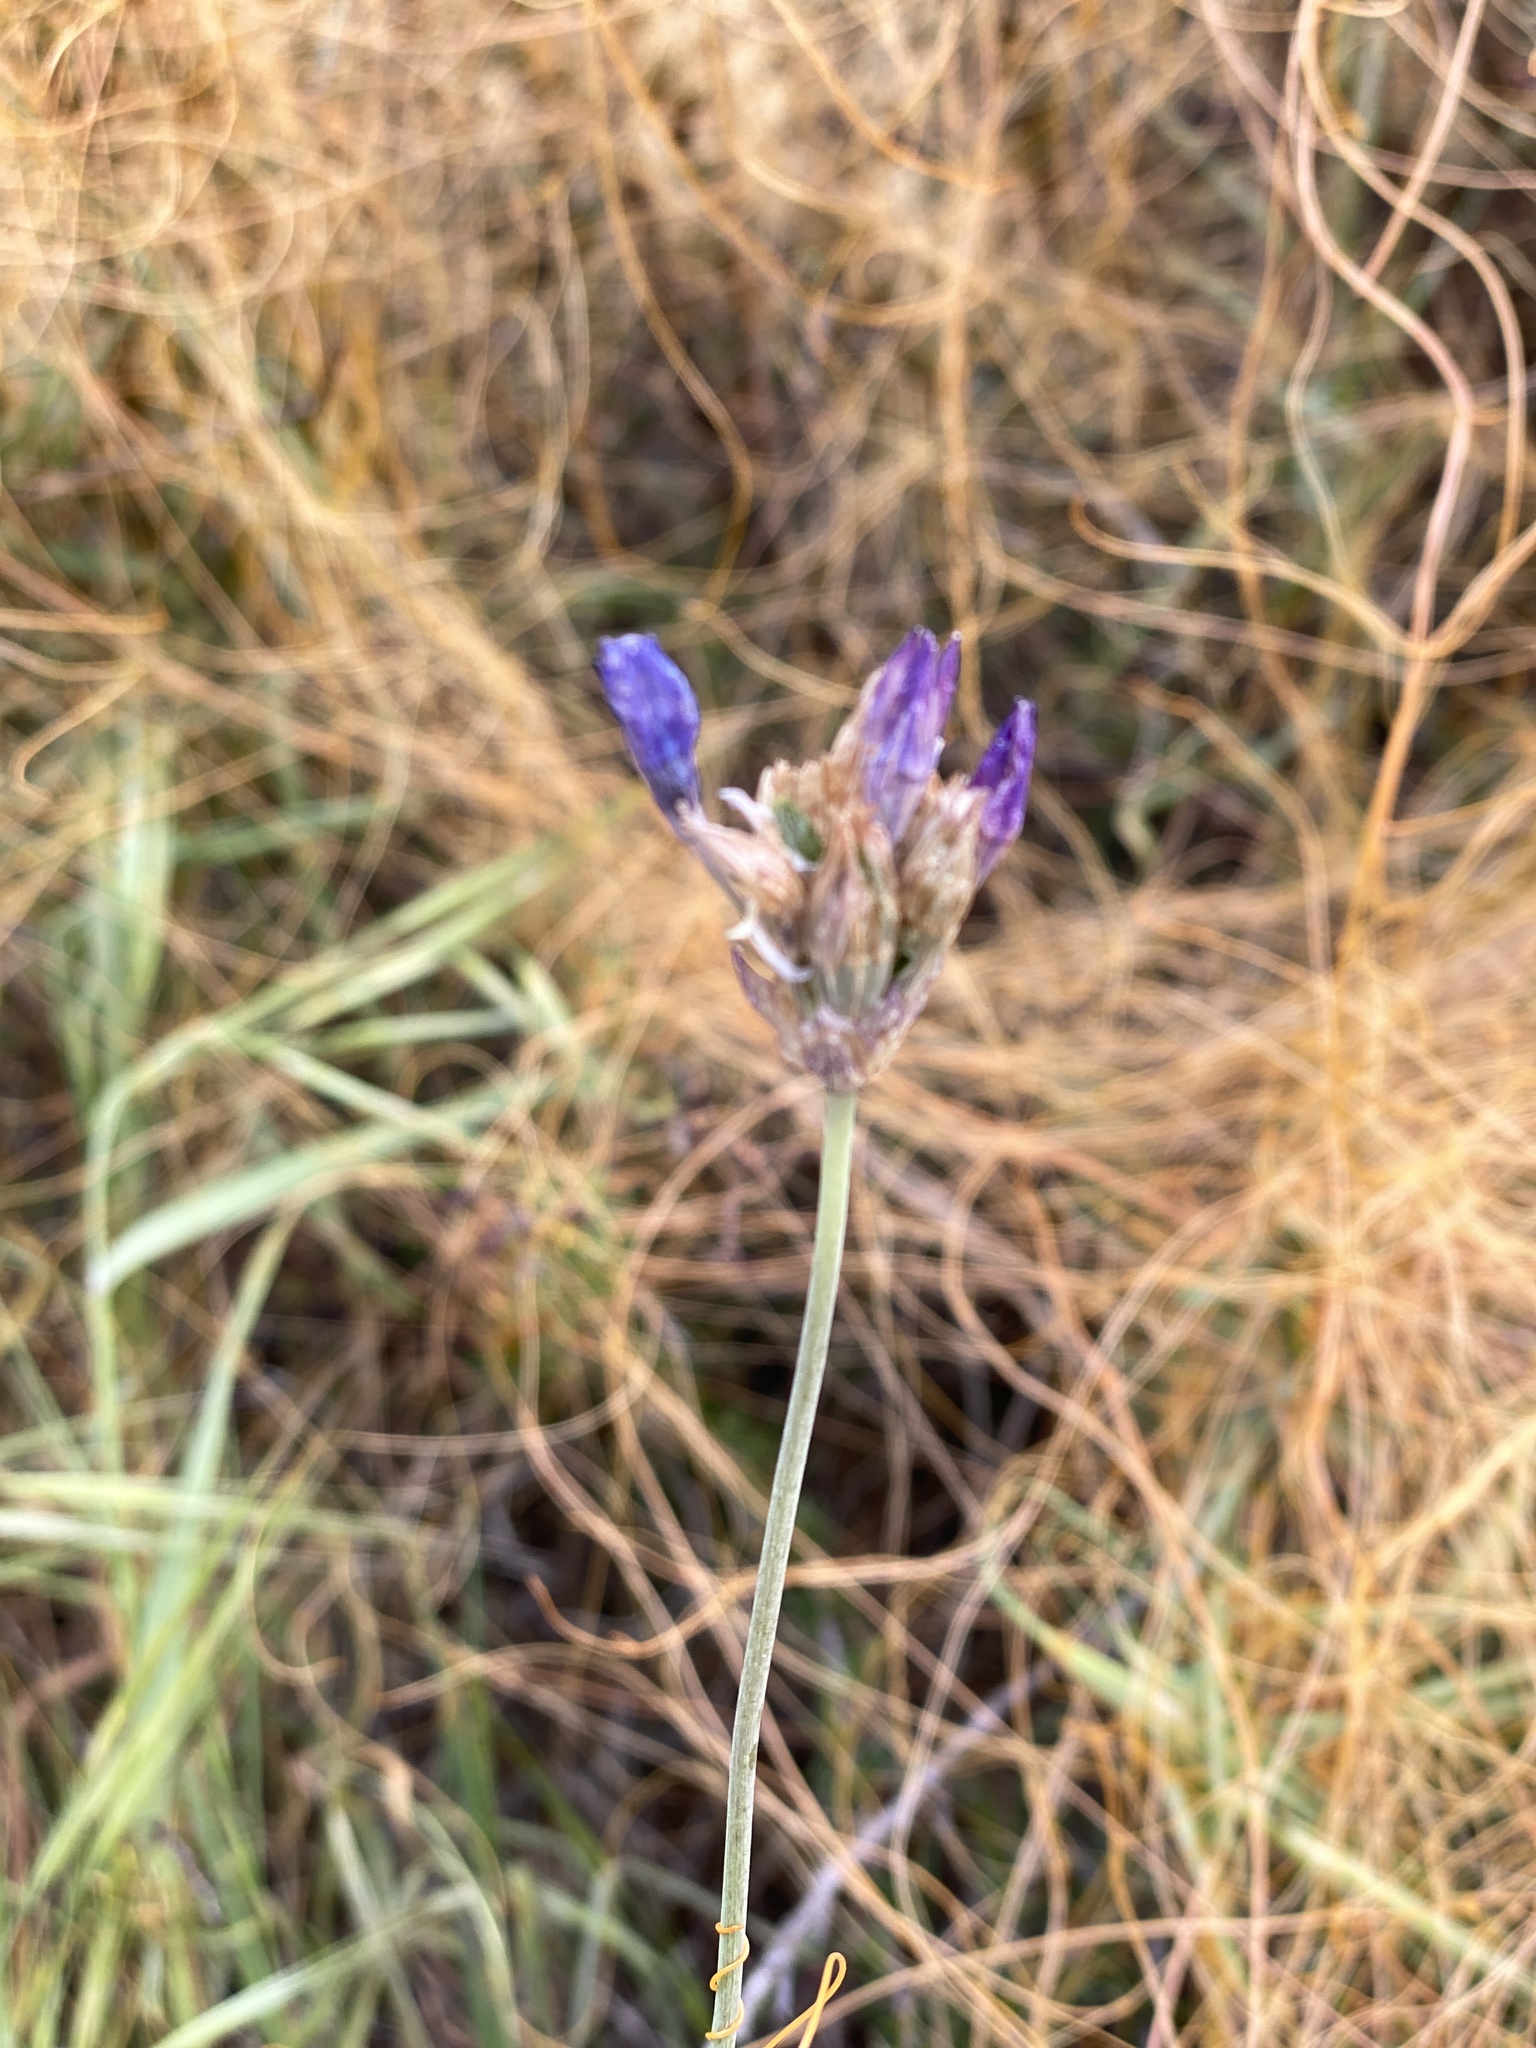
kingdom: Plantae
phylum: Tracheophyta
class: Liliopsida
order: Asparagales
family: Asparagaceae
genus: Dipterostemon
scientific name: Dipterostemon capitatus
